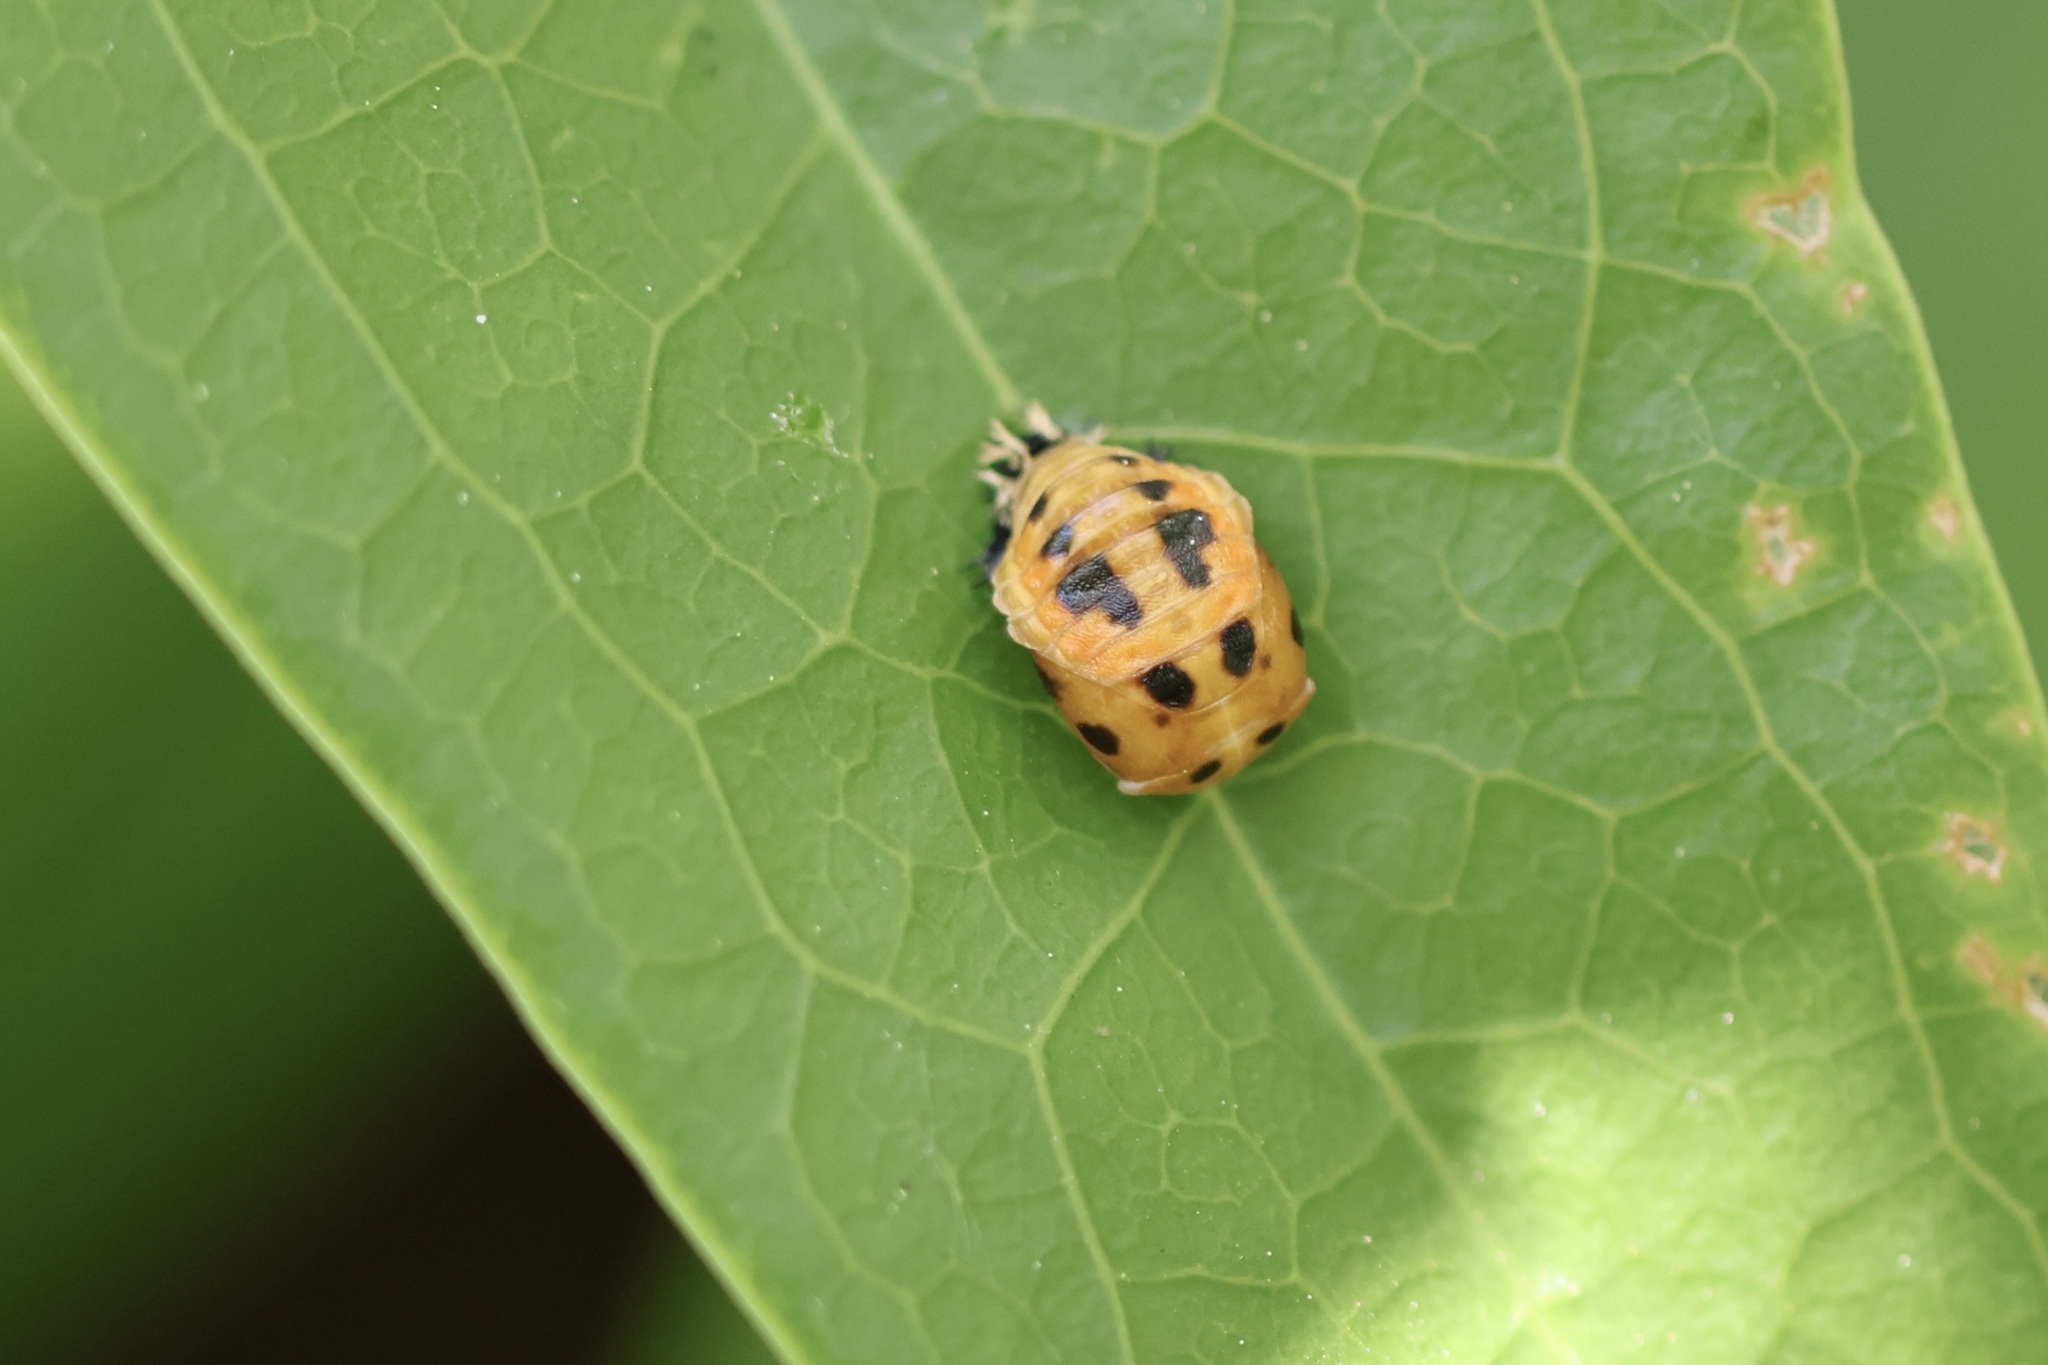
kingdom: Animalia
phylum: Arthropoda
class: Insecta
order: Coleoptera
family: Coccinellidae
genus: Harmonia
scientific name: Harmonia axyridis
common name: Harlequin ladybird
